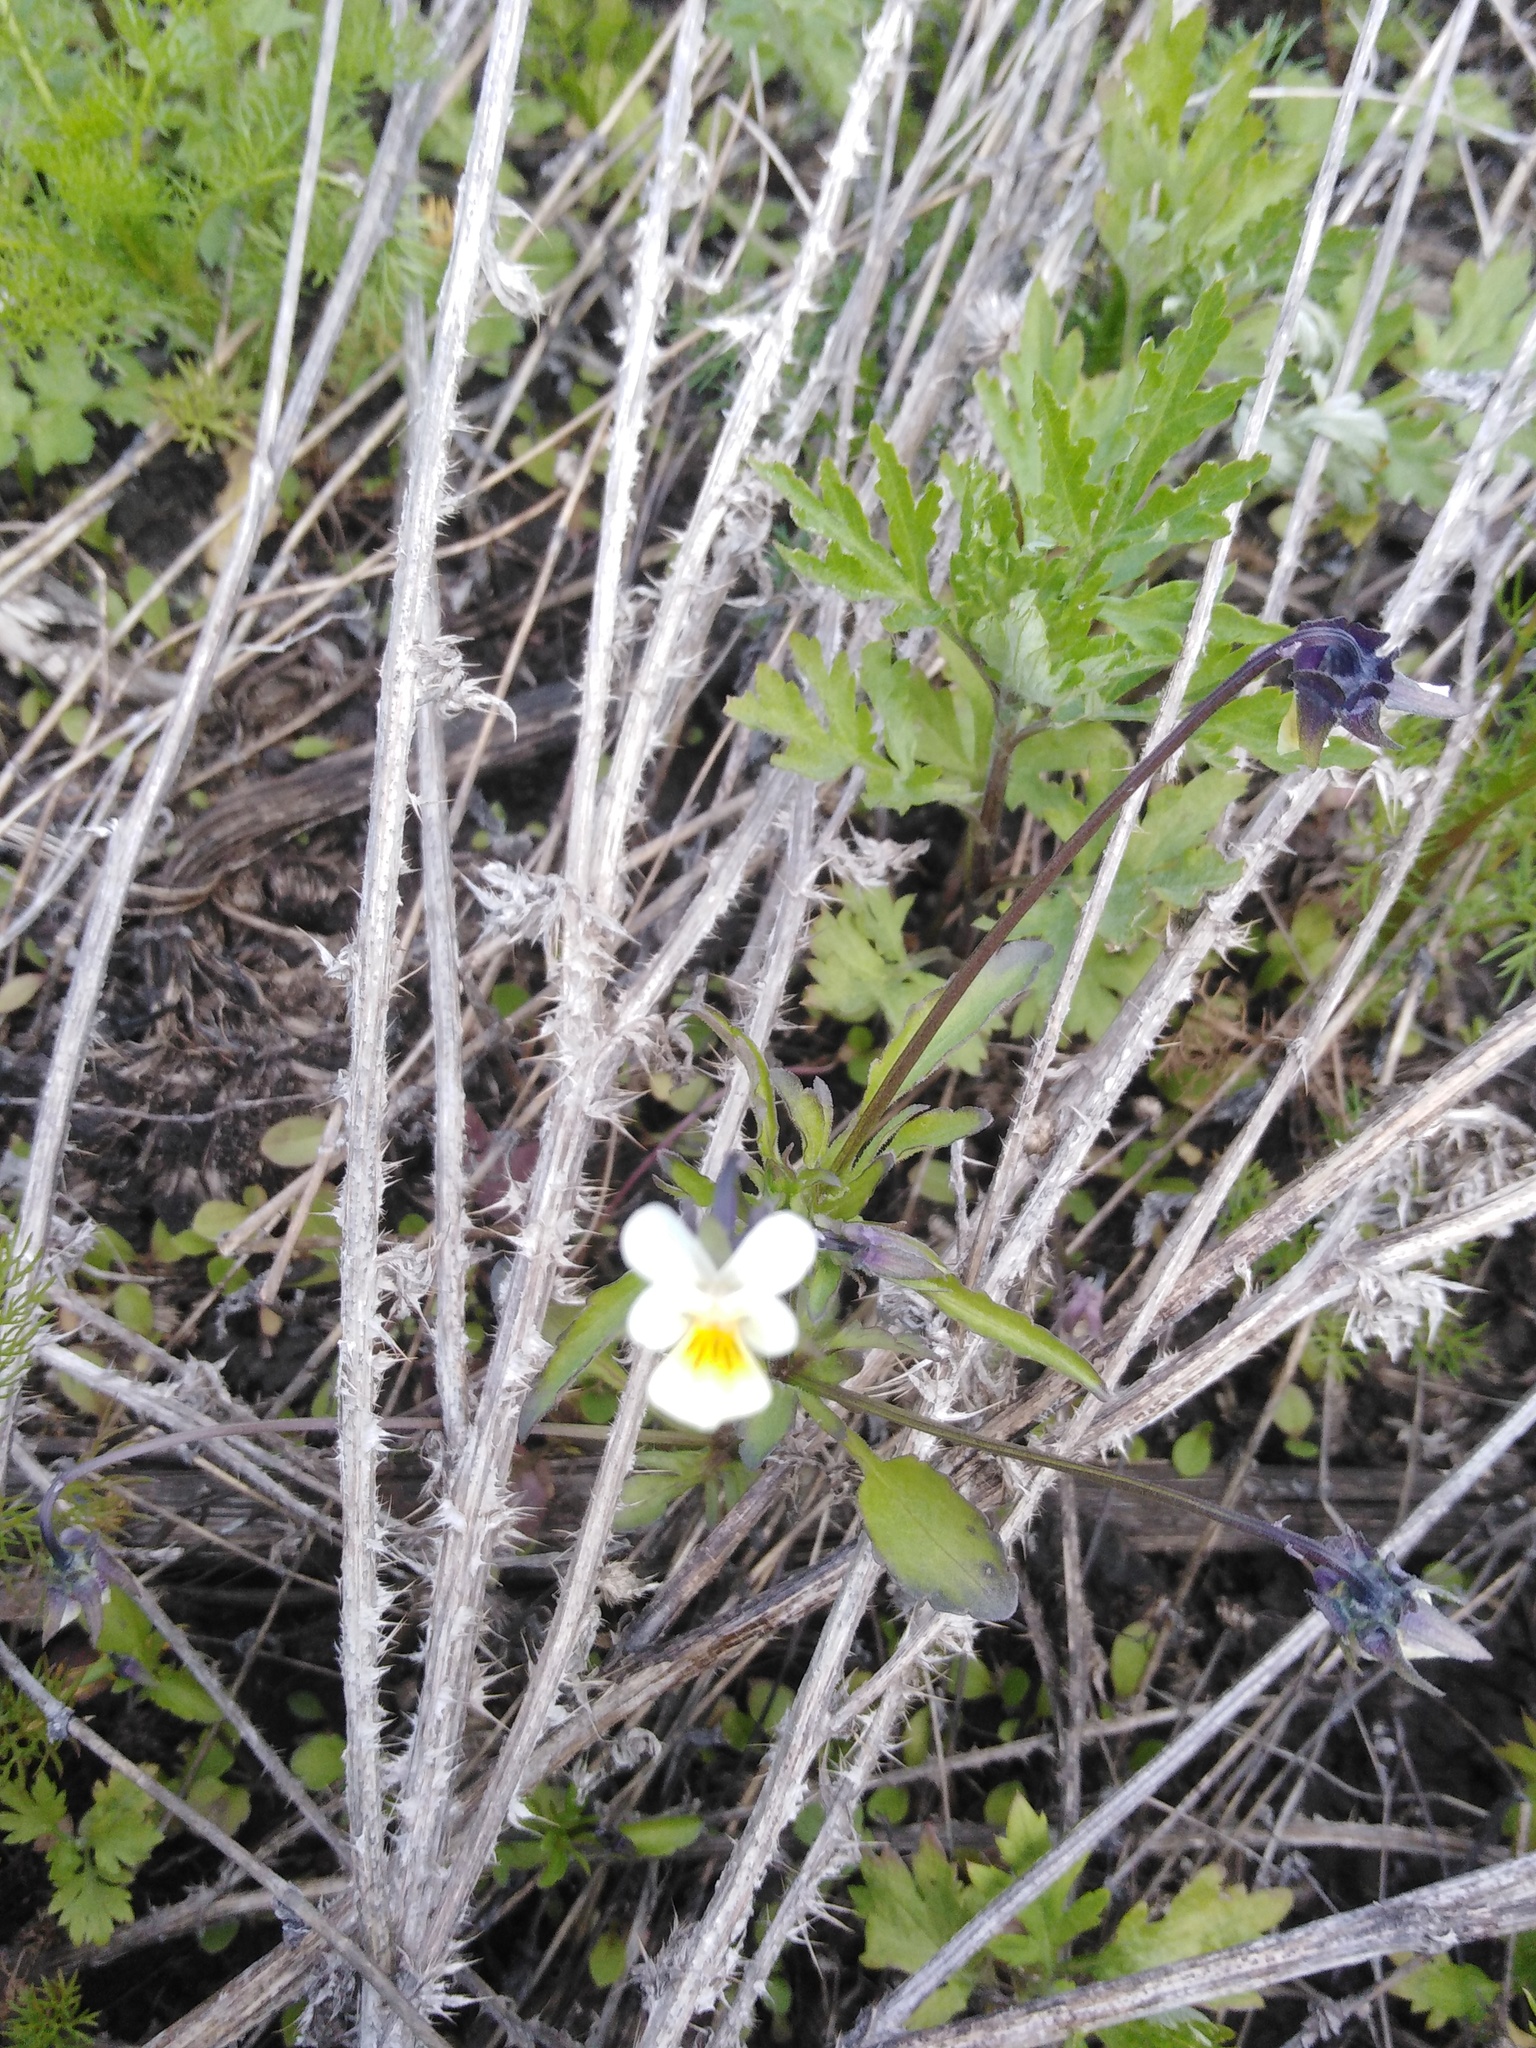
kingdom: Plantae
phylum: Tracheophyta
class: Magnoliopsida
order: Malpighiales
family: Violaceae
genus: Viola
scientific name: Viola arvensis
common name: Field pansy
